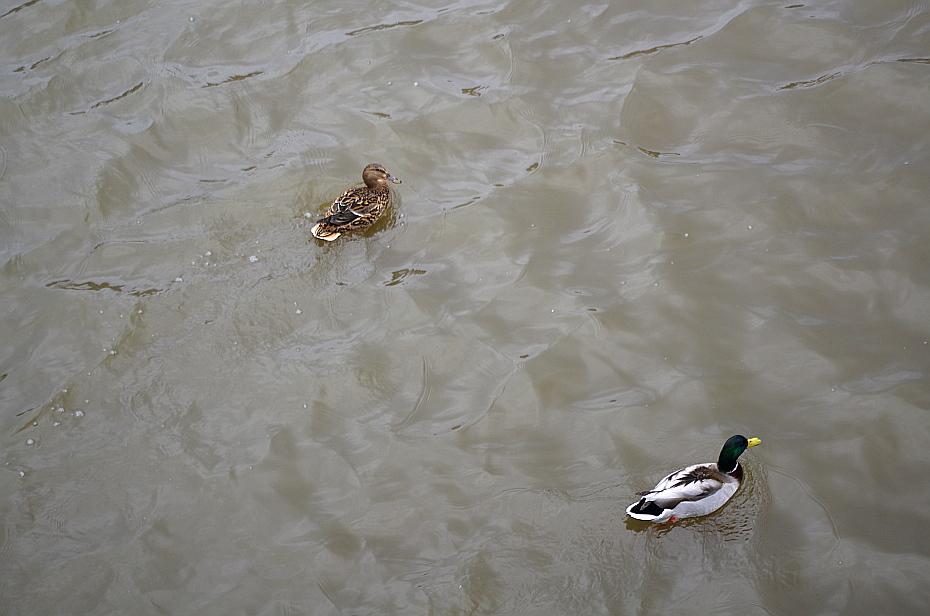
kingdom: Animalia
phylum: Chordata
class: Aves
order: Anseriformes
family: Anatidae
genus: Anas
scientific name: Anas platyrhynchos
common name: Mallard
